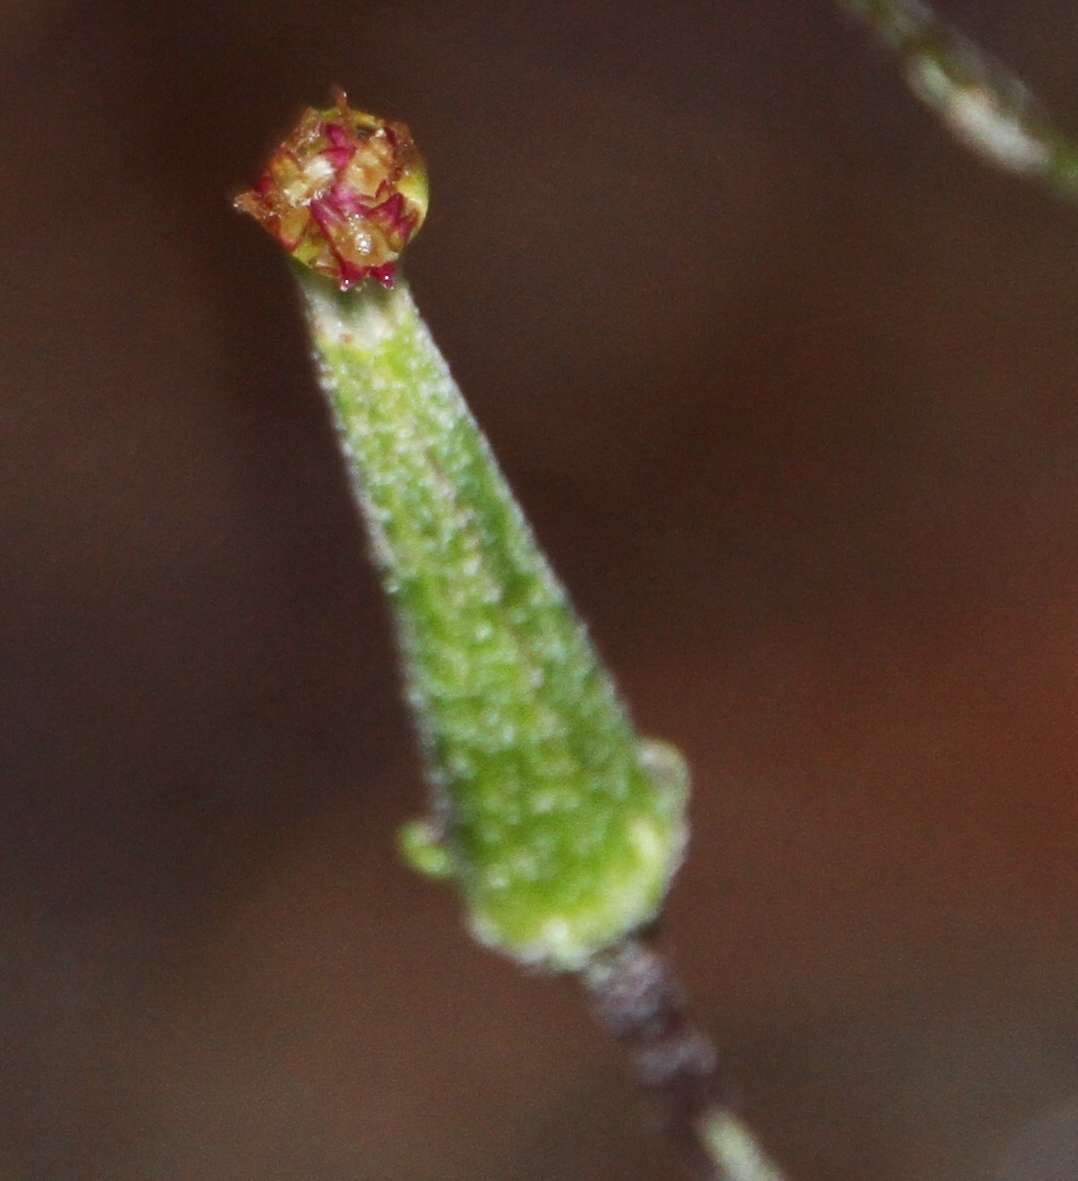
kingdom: Plantae
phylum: Tracheophyta
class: Magnoliopsida
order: Asterales
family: Asteraceae
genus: Arrhenechthites
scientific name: Arrhenechthites mixtus
